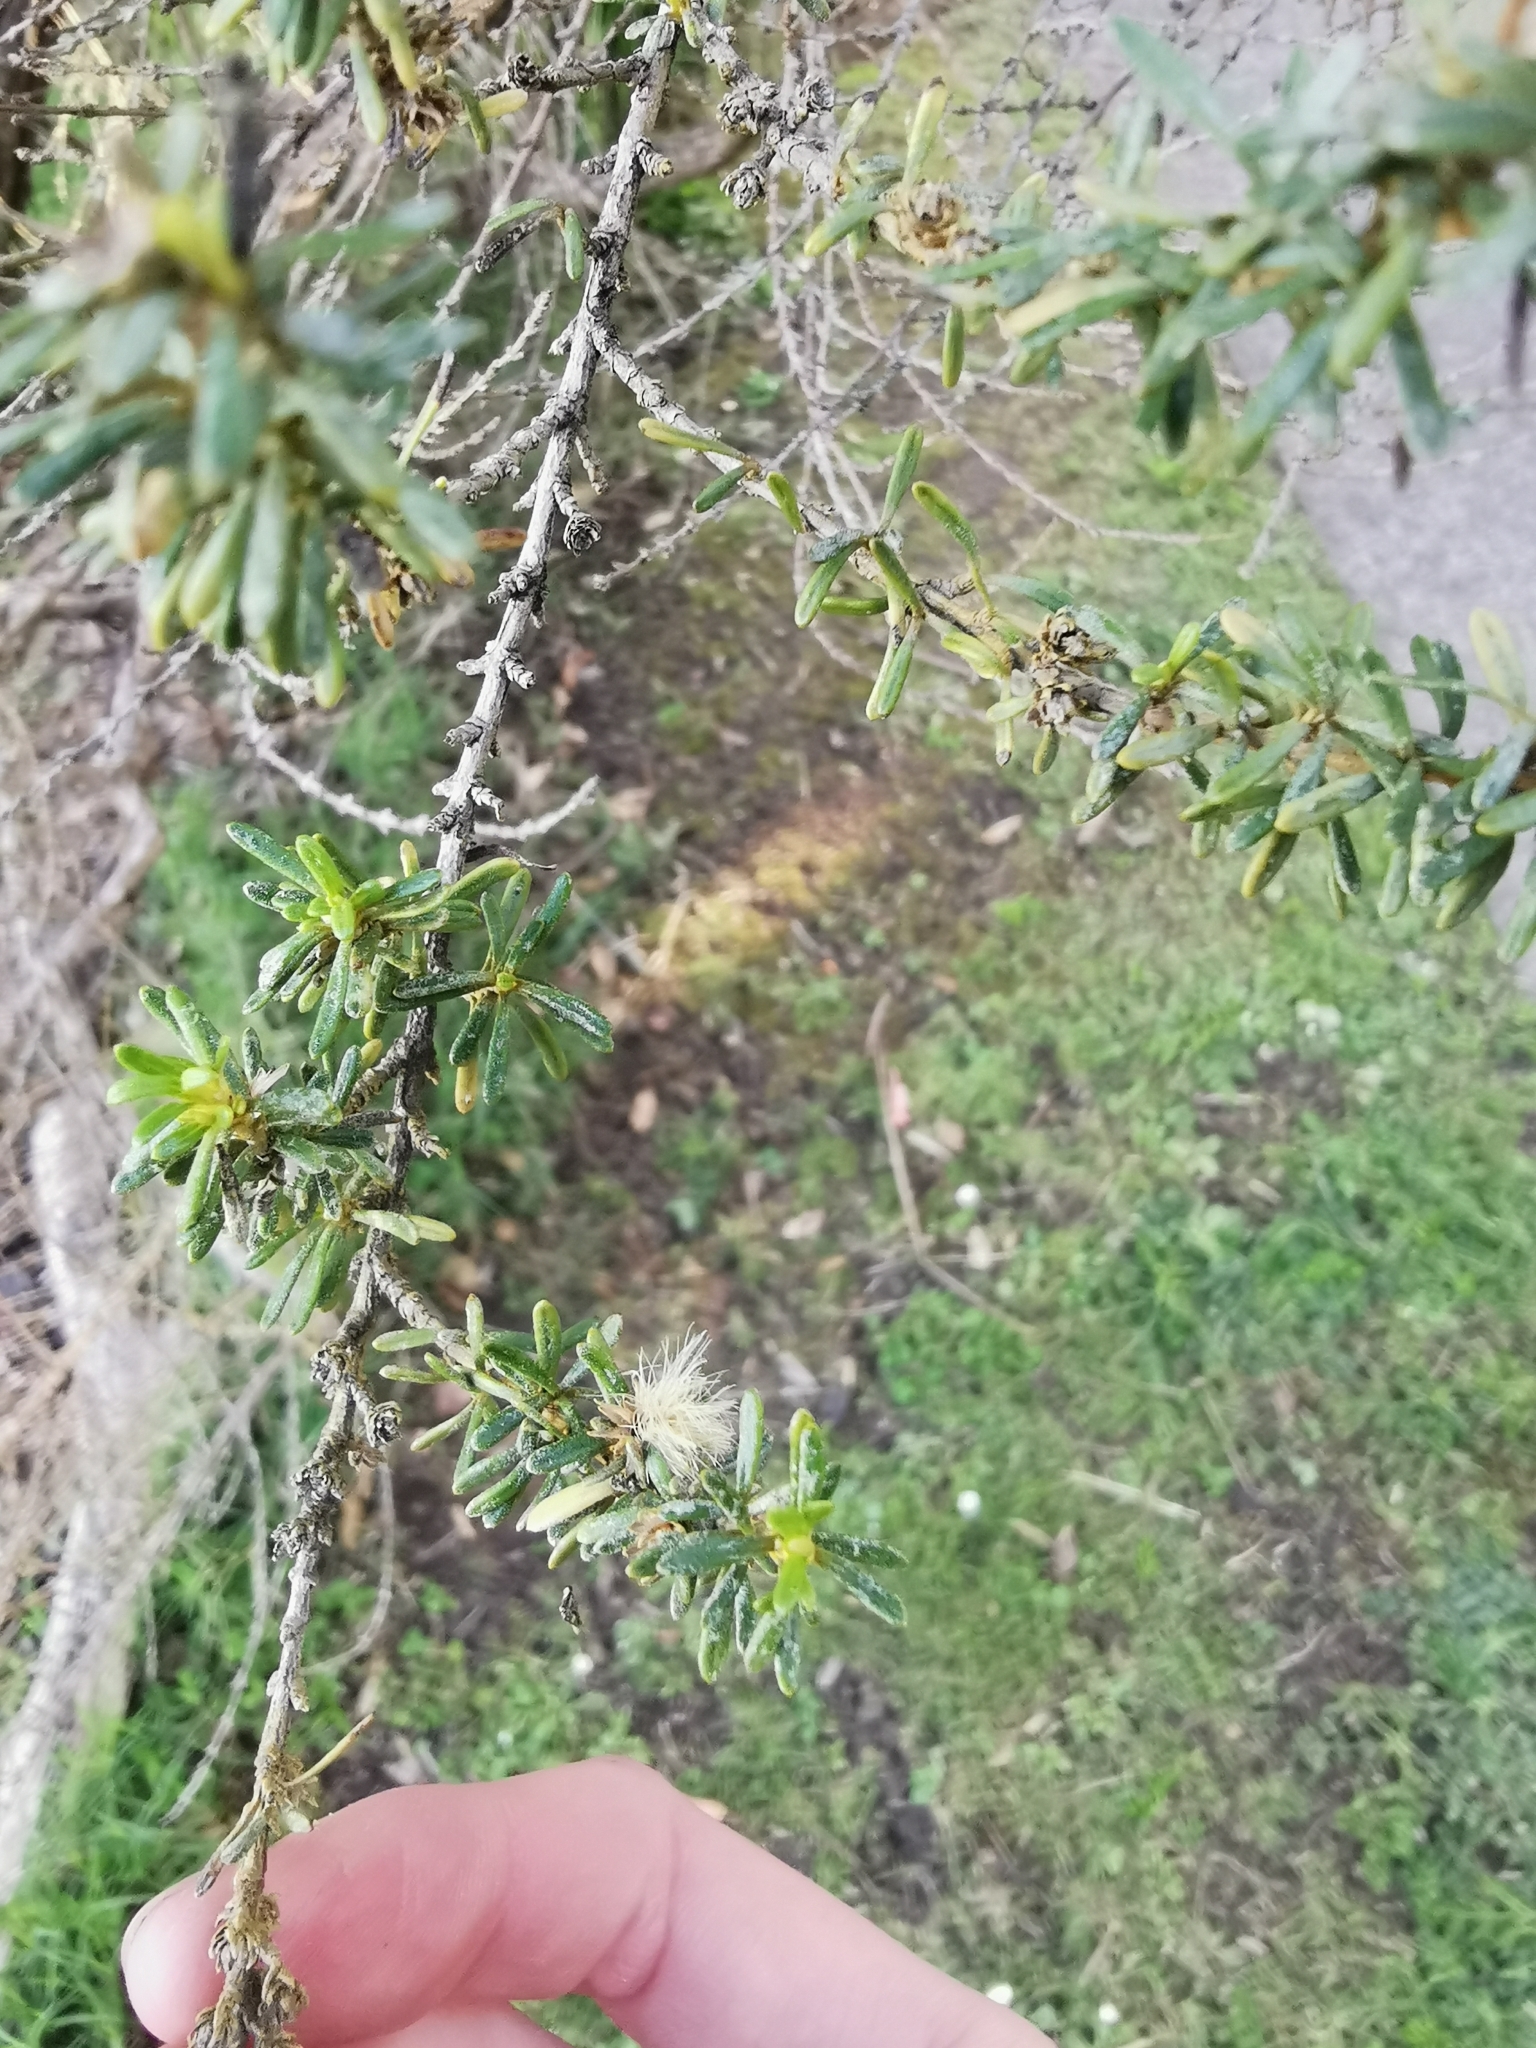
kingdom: Plantae
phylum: Tracheophyta
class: Magnoliopsida
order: Asterales
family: Asteraceae
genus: Olearia
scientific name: Olearia solandri
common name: Coastal daisybush
